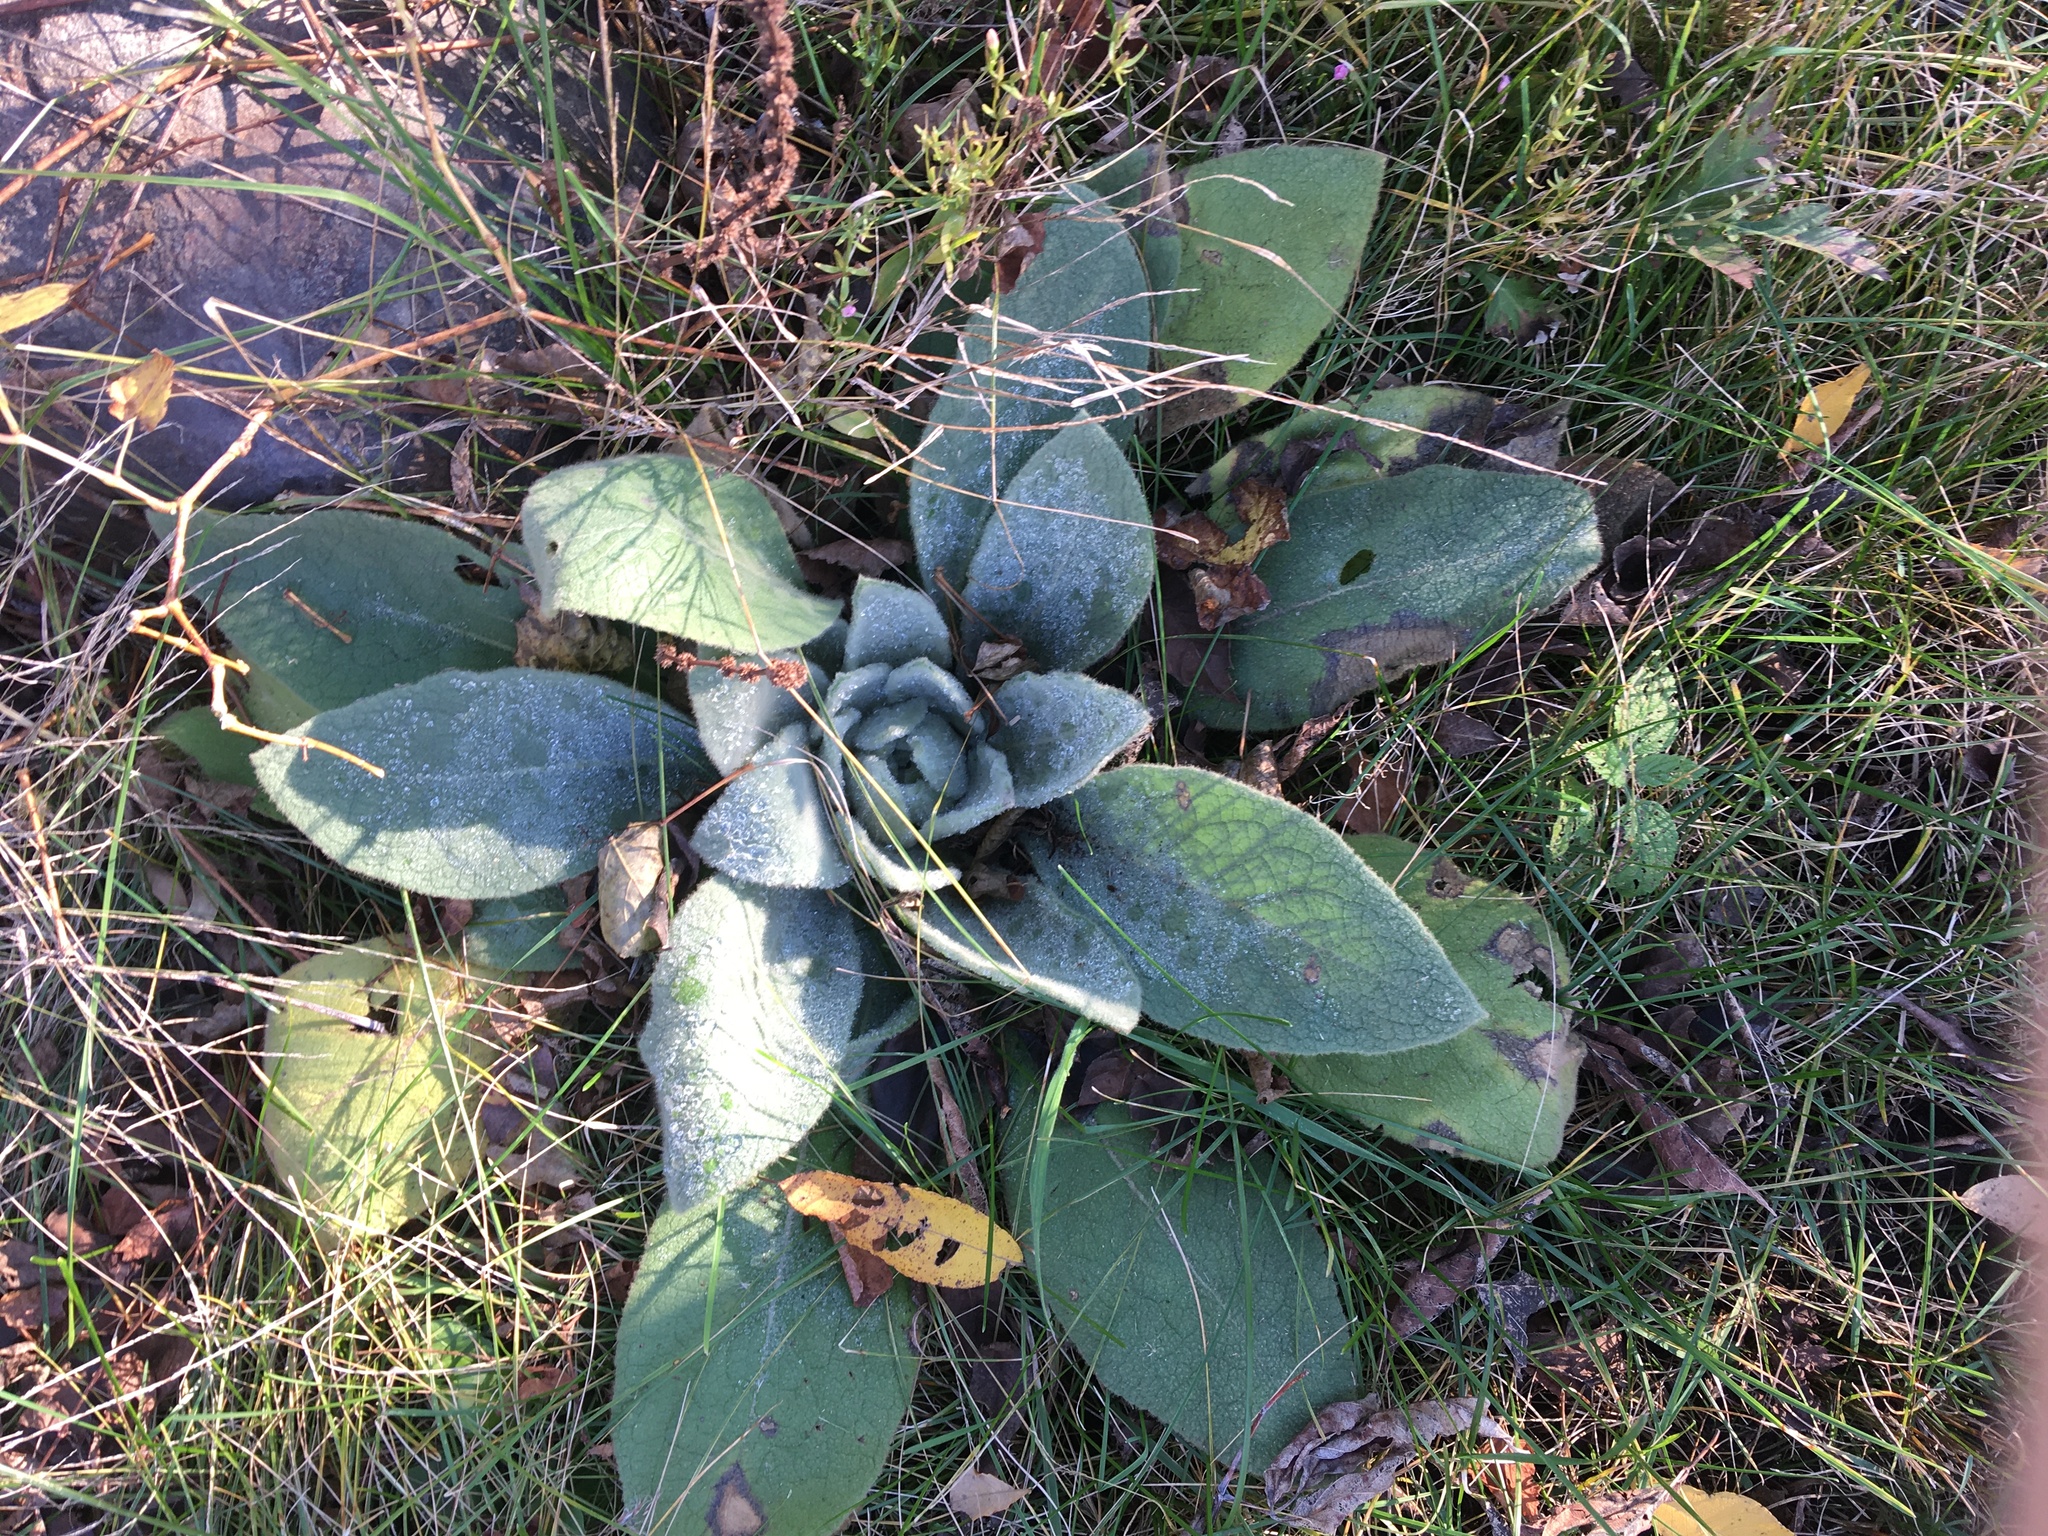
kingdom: Plantae
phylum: Tracheophyta
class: Magnoliopsida
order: Lamiales
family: Scrophulariaceae
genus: Verbascum
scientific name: Verbascum thapsus
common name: Common mullein
